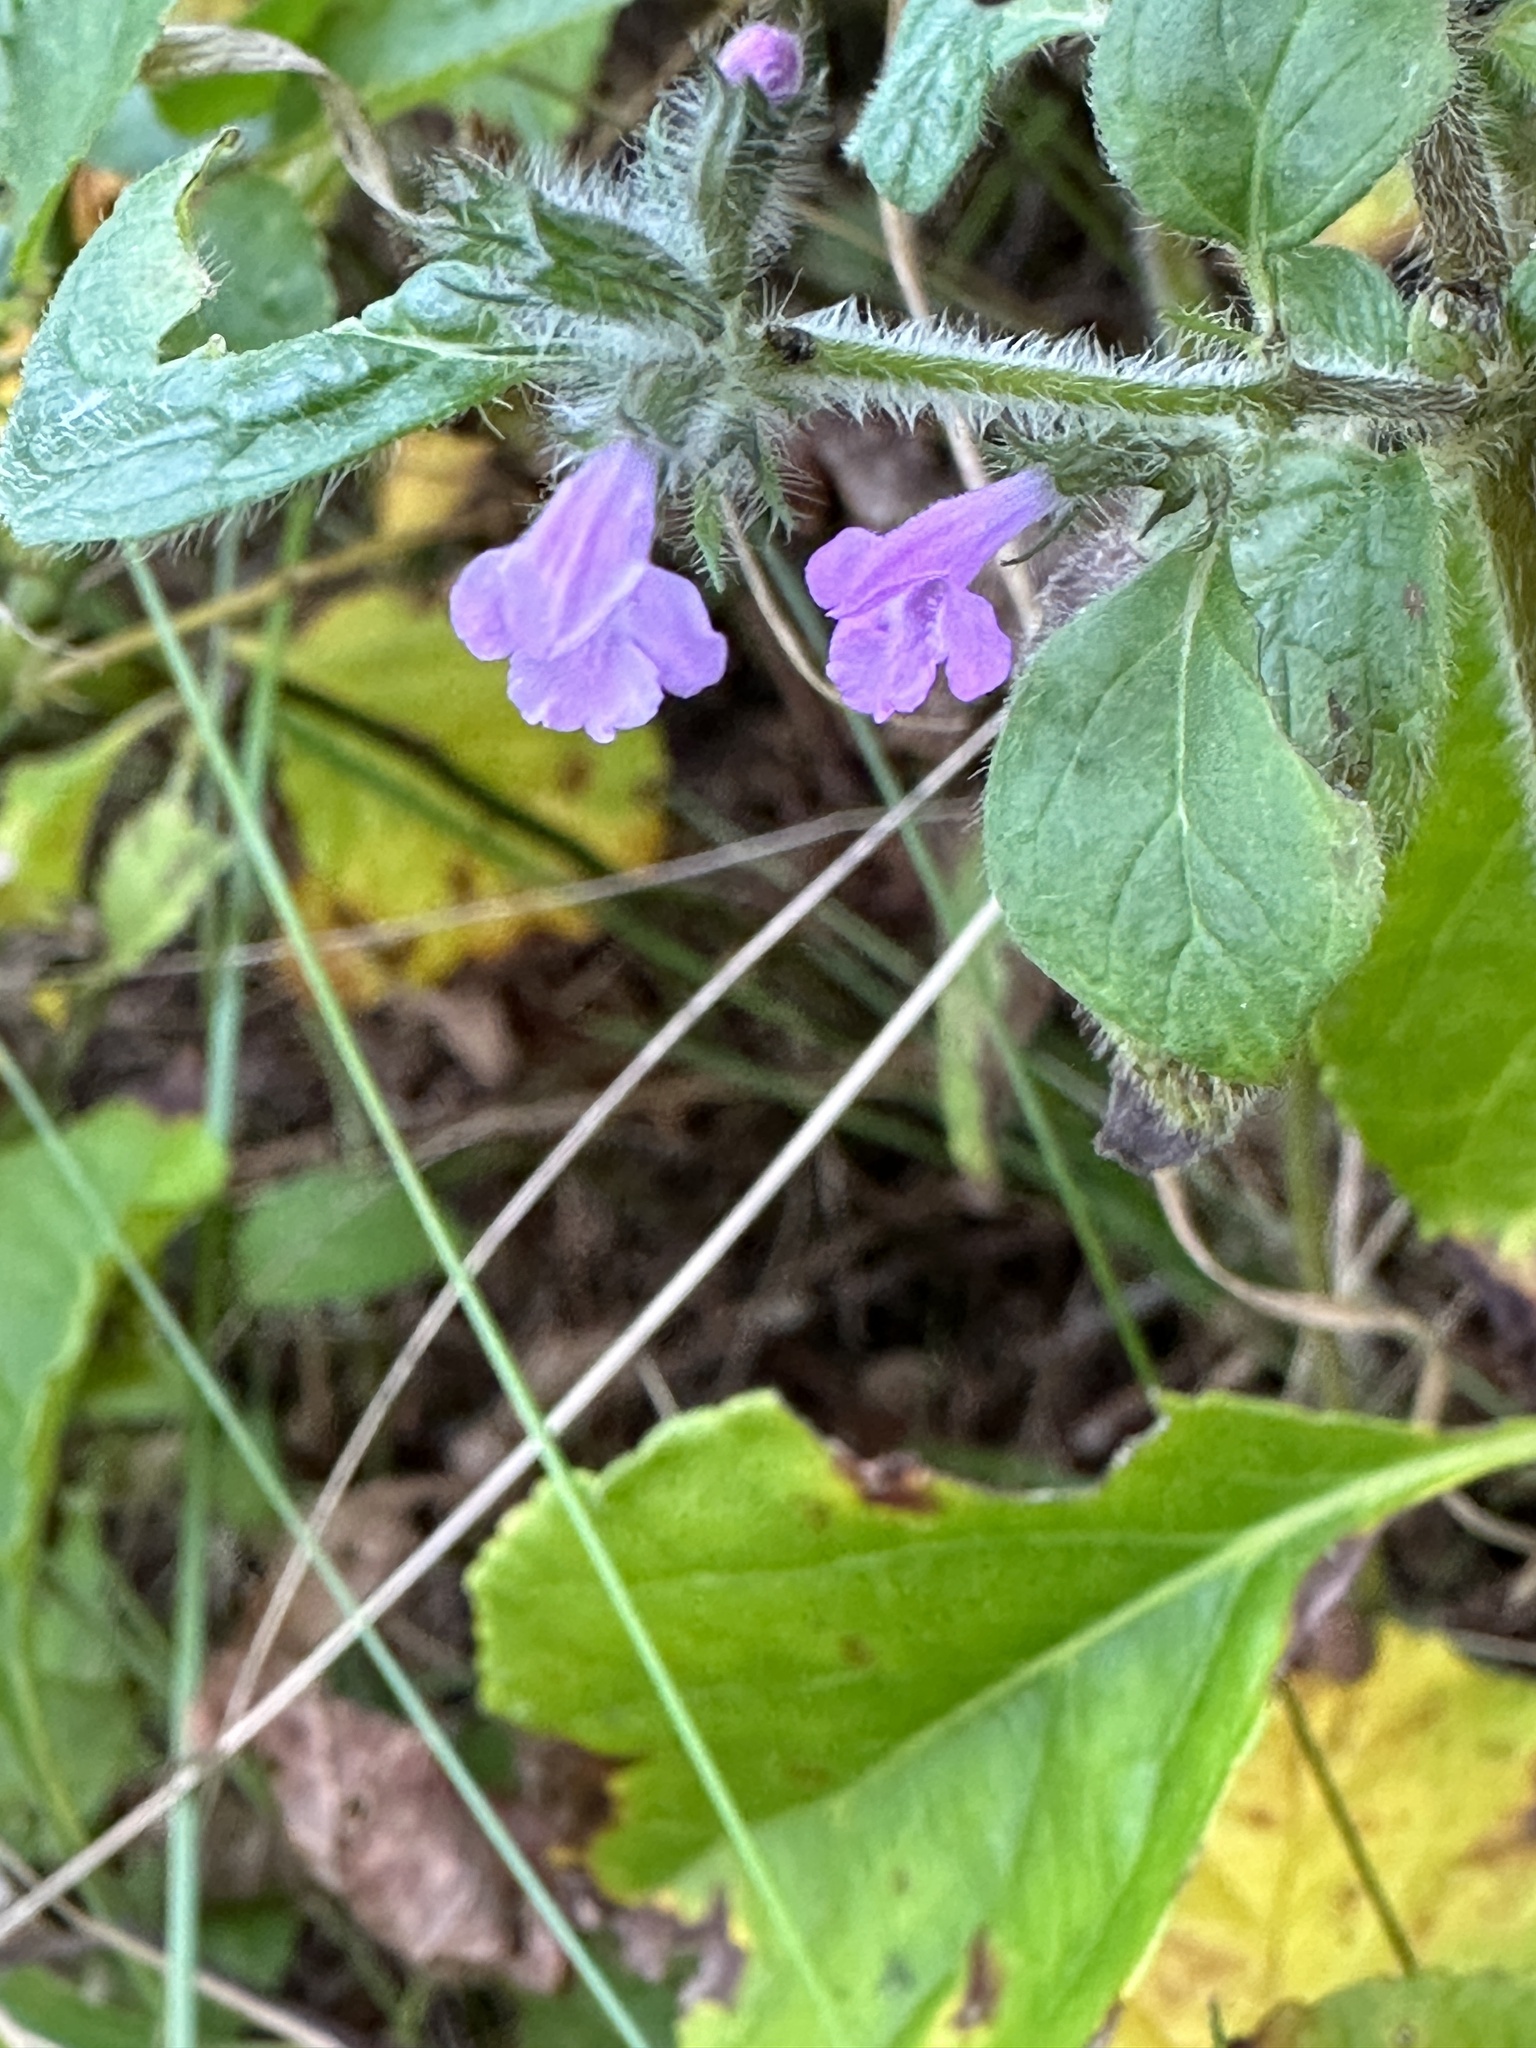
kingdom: Plantae
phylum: Tracheophyta
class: Magnoliopsida
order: Lamiales
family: Lamiaceae
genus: Clinopodium
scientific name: Clinopodium vulgare
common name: Wild basil
